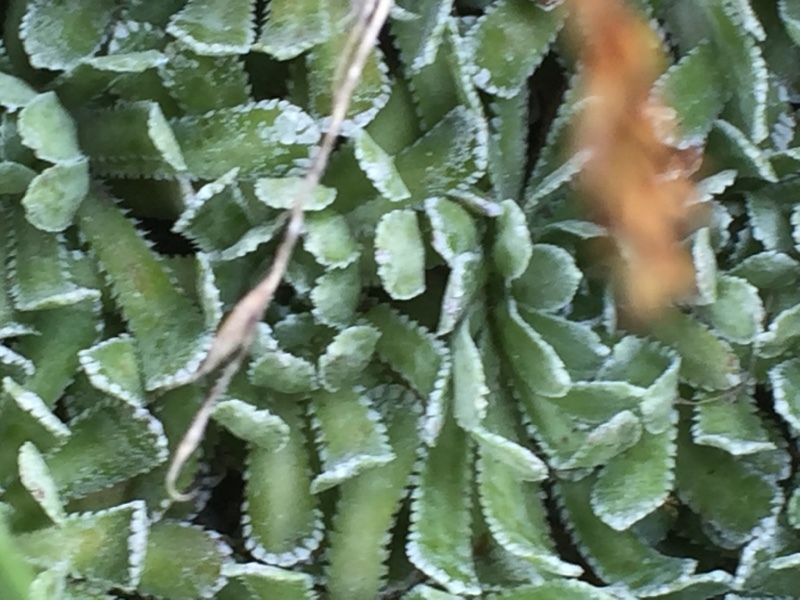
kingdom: Plantae
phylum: Tracheophyta
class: Magnoliopsida
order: Saxifragales
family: Saxifragaceae
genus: Saxifraga
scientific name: Saxifraga paniculata
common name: Livelong saxifrage
